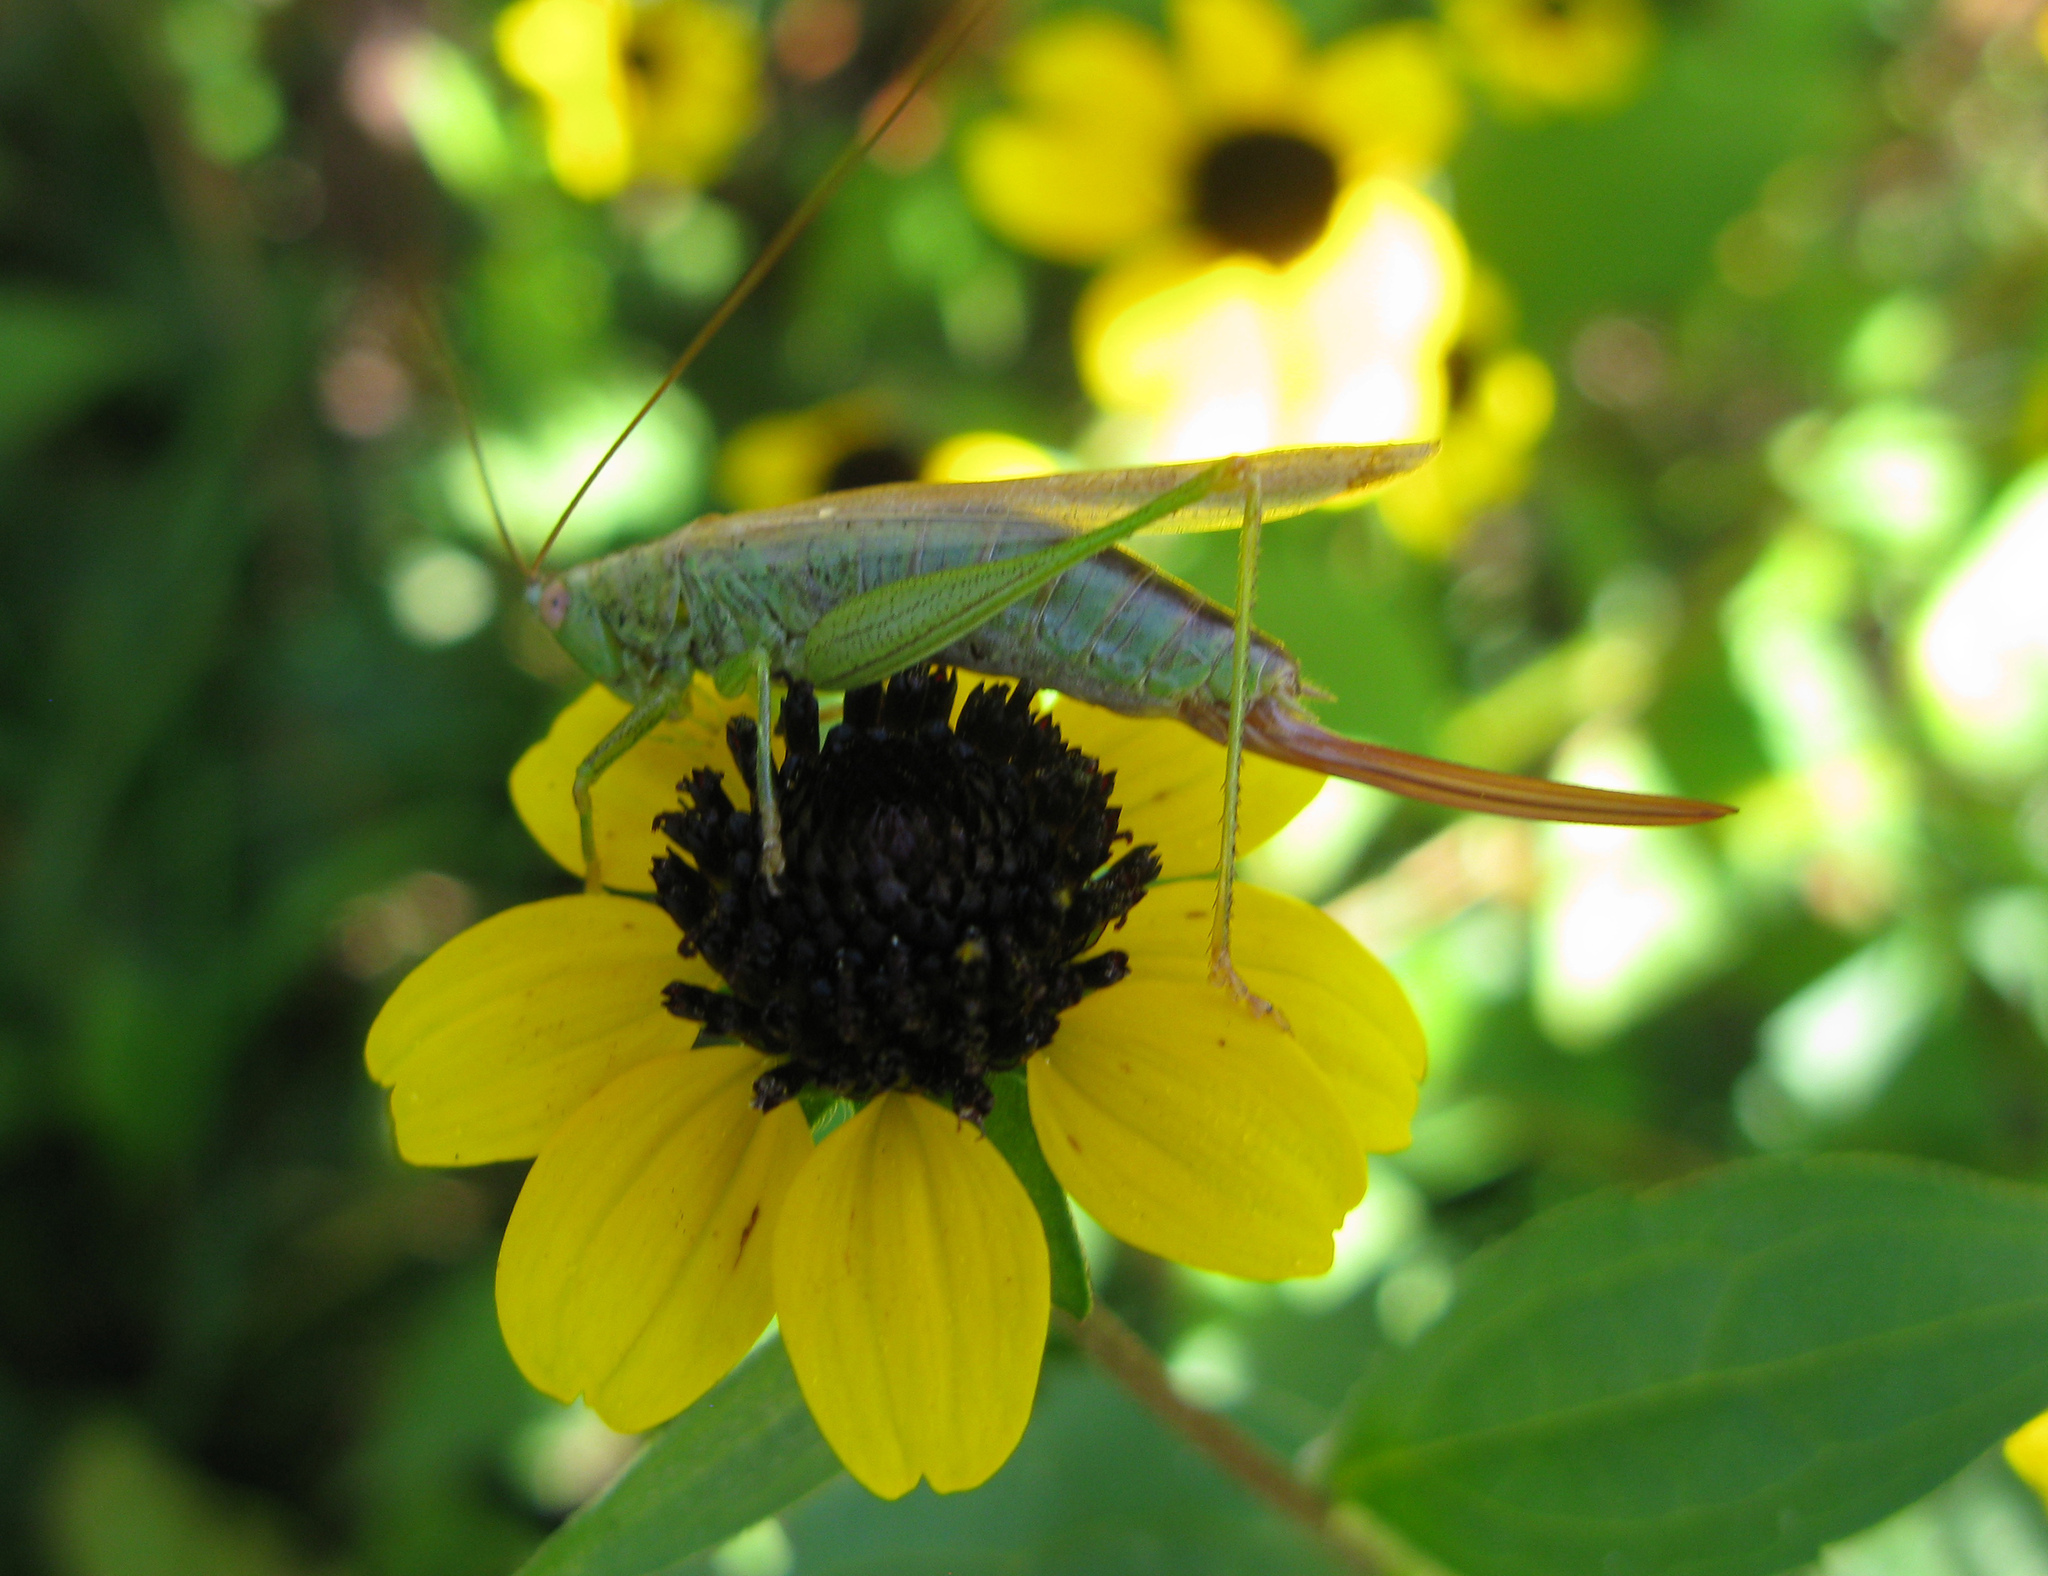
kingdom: Animalia
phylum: Arthropoda
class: Insecta
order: Orthoptera
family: Tettigoniidae
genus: Conocephalus
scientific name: Conocephalus fuscus
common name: Long-winged conehead
